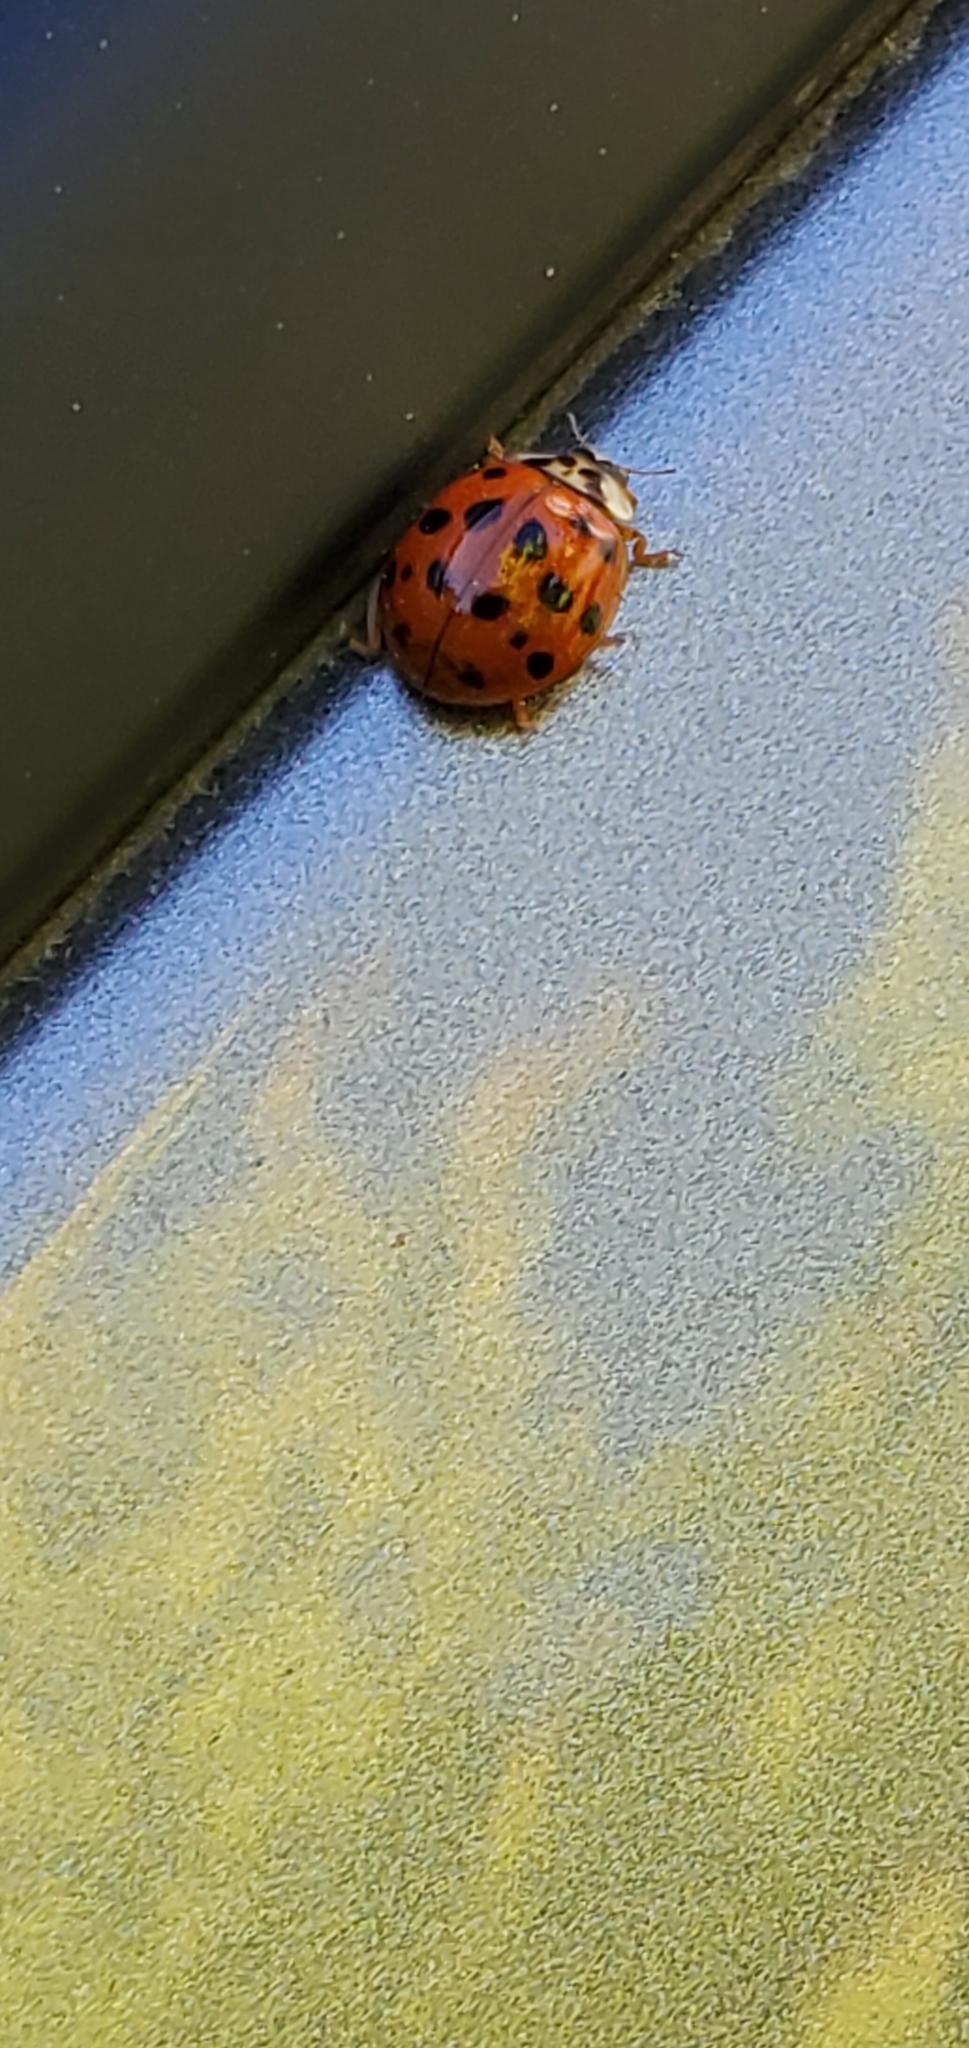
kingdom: Animalia
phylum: Arthropoda
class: Insecta
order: Coleoptera
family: Coccinellidae
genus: Harmonia
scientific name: Harmonia axyridis
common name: Harlequin ladybird
